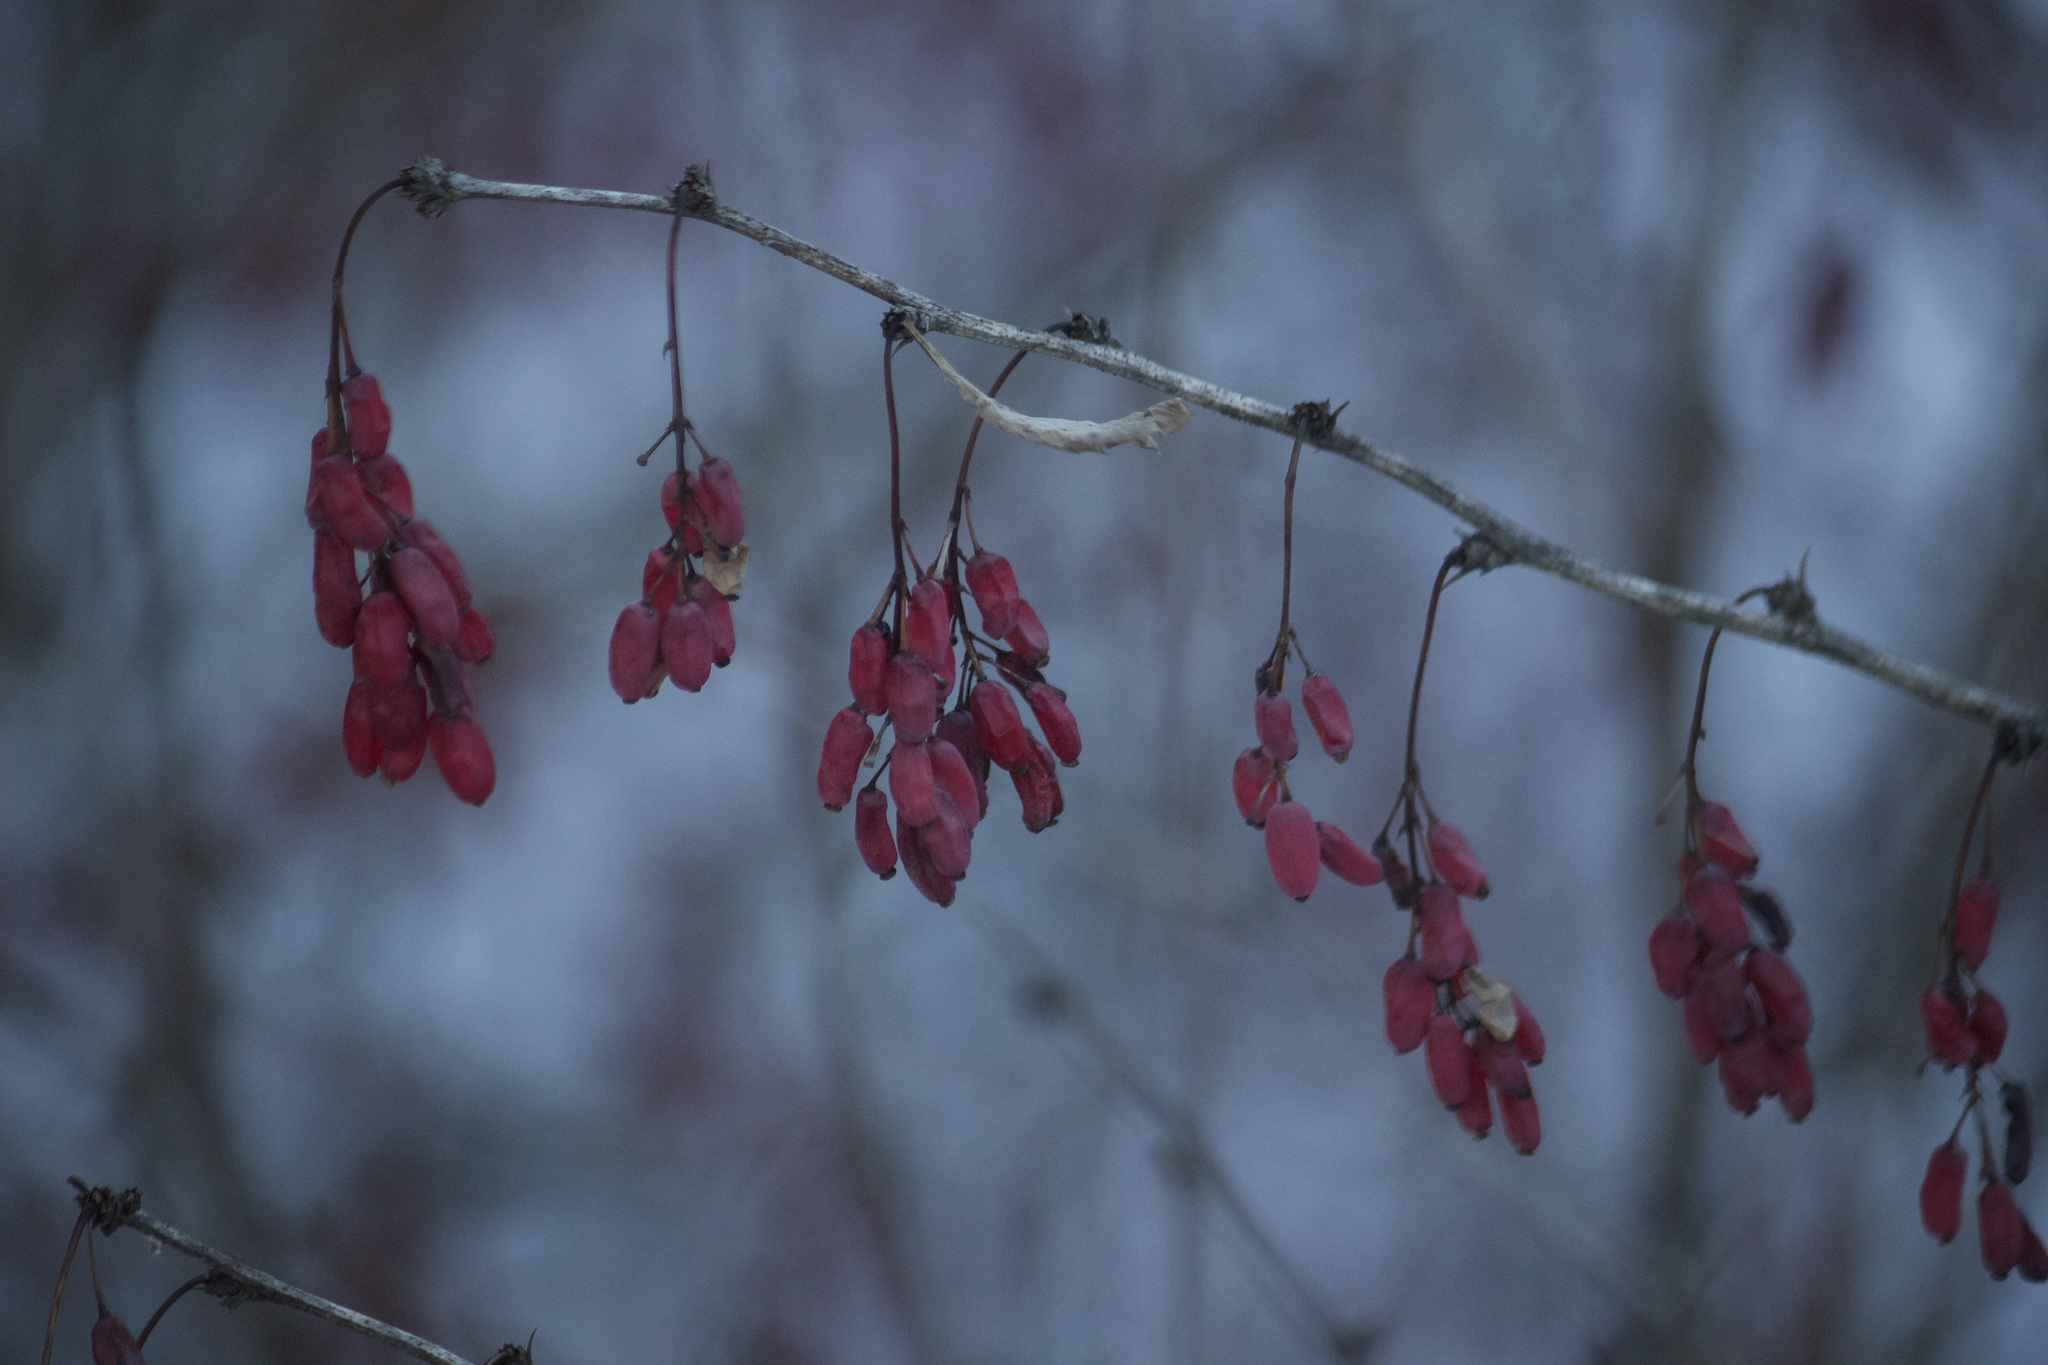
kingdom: Plantae
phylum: Tracheophyta
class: Magnoliopsida
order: Ranunculales
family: Berberidaceae
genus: Berberis
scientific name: Berberis vulgaris
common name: Barberry
